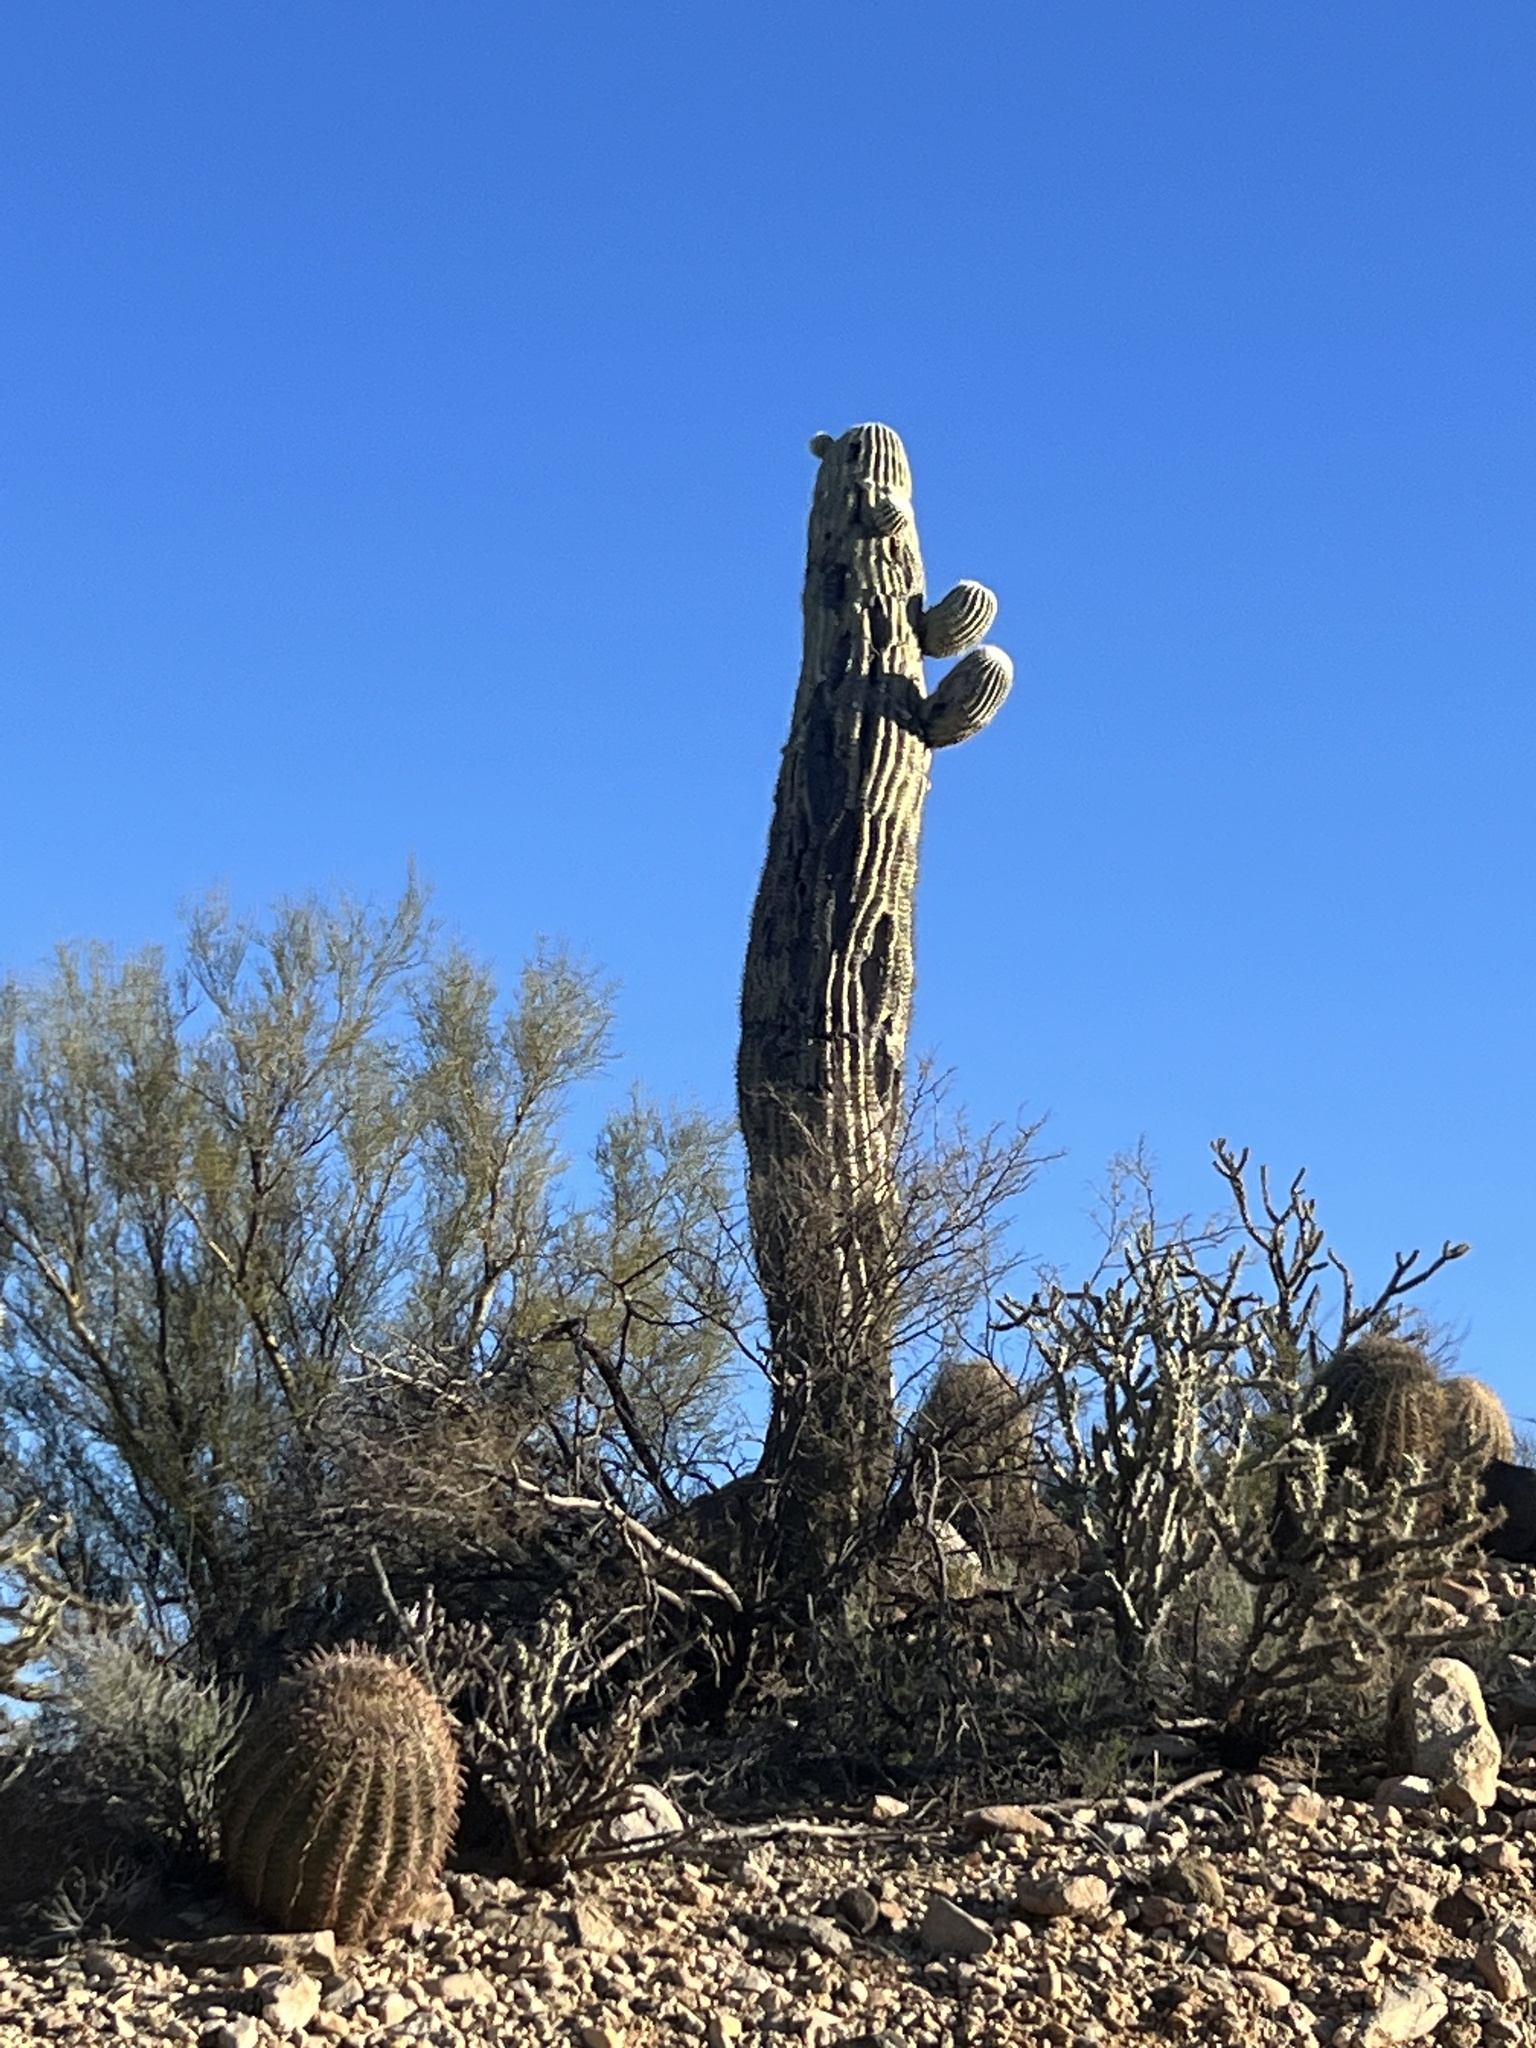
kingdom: Plantae
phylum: Tracheophyta
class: Magnoliopsida
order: Caryophyllales
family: Cactaceae
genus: Carnegiea
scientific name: Carnegiea gigantea
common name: Saguaro
